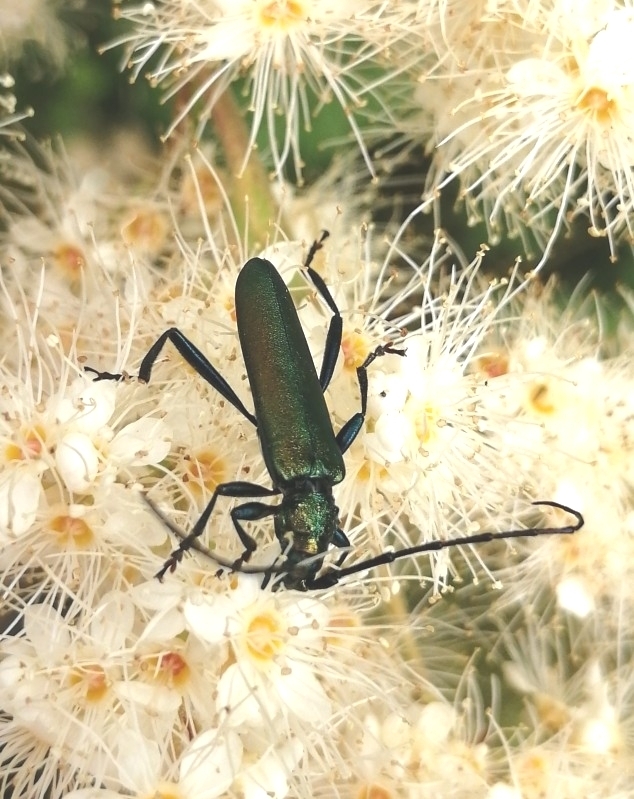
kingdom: Animalia
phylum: Arthropoda
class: Insecta
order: Coleoptera
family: Cerambycidae
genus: Aromia
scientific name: Aromia moschata
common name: Musk beetle
